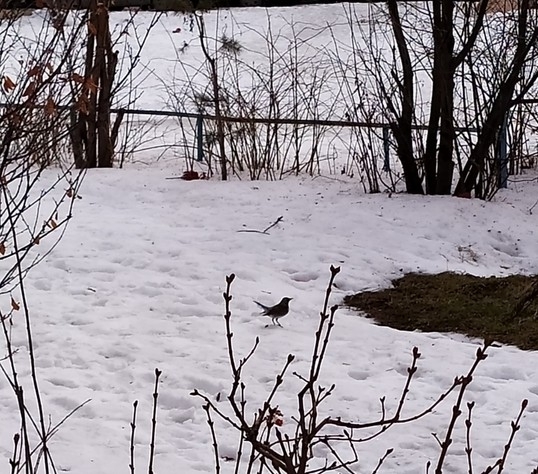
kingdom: Animalia
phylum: Chordata
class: Aves
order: Passeriformes
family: Turdidae
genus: Turdus
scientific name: Turdus pilaris
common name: Fieldfare
